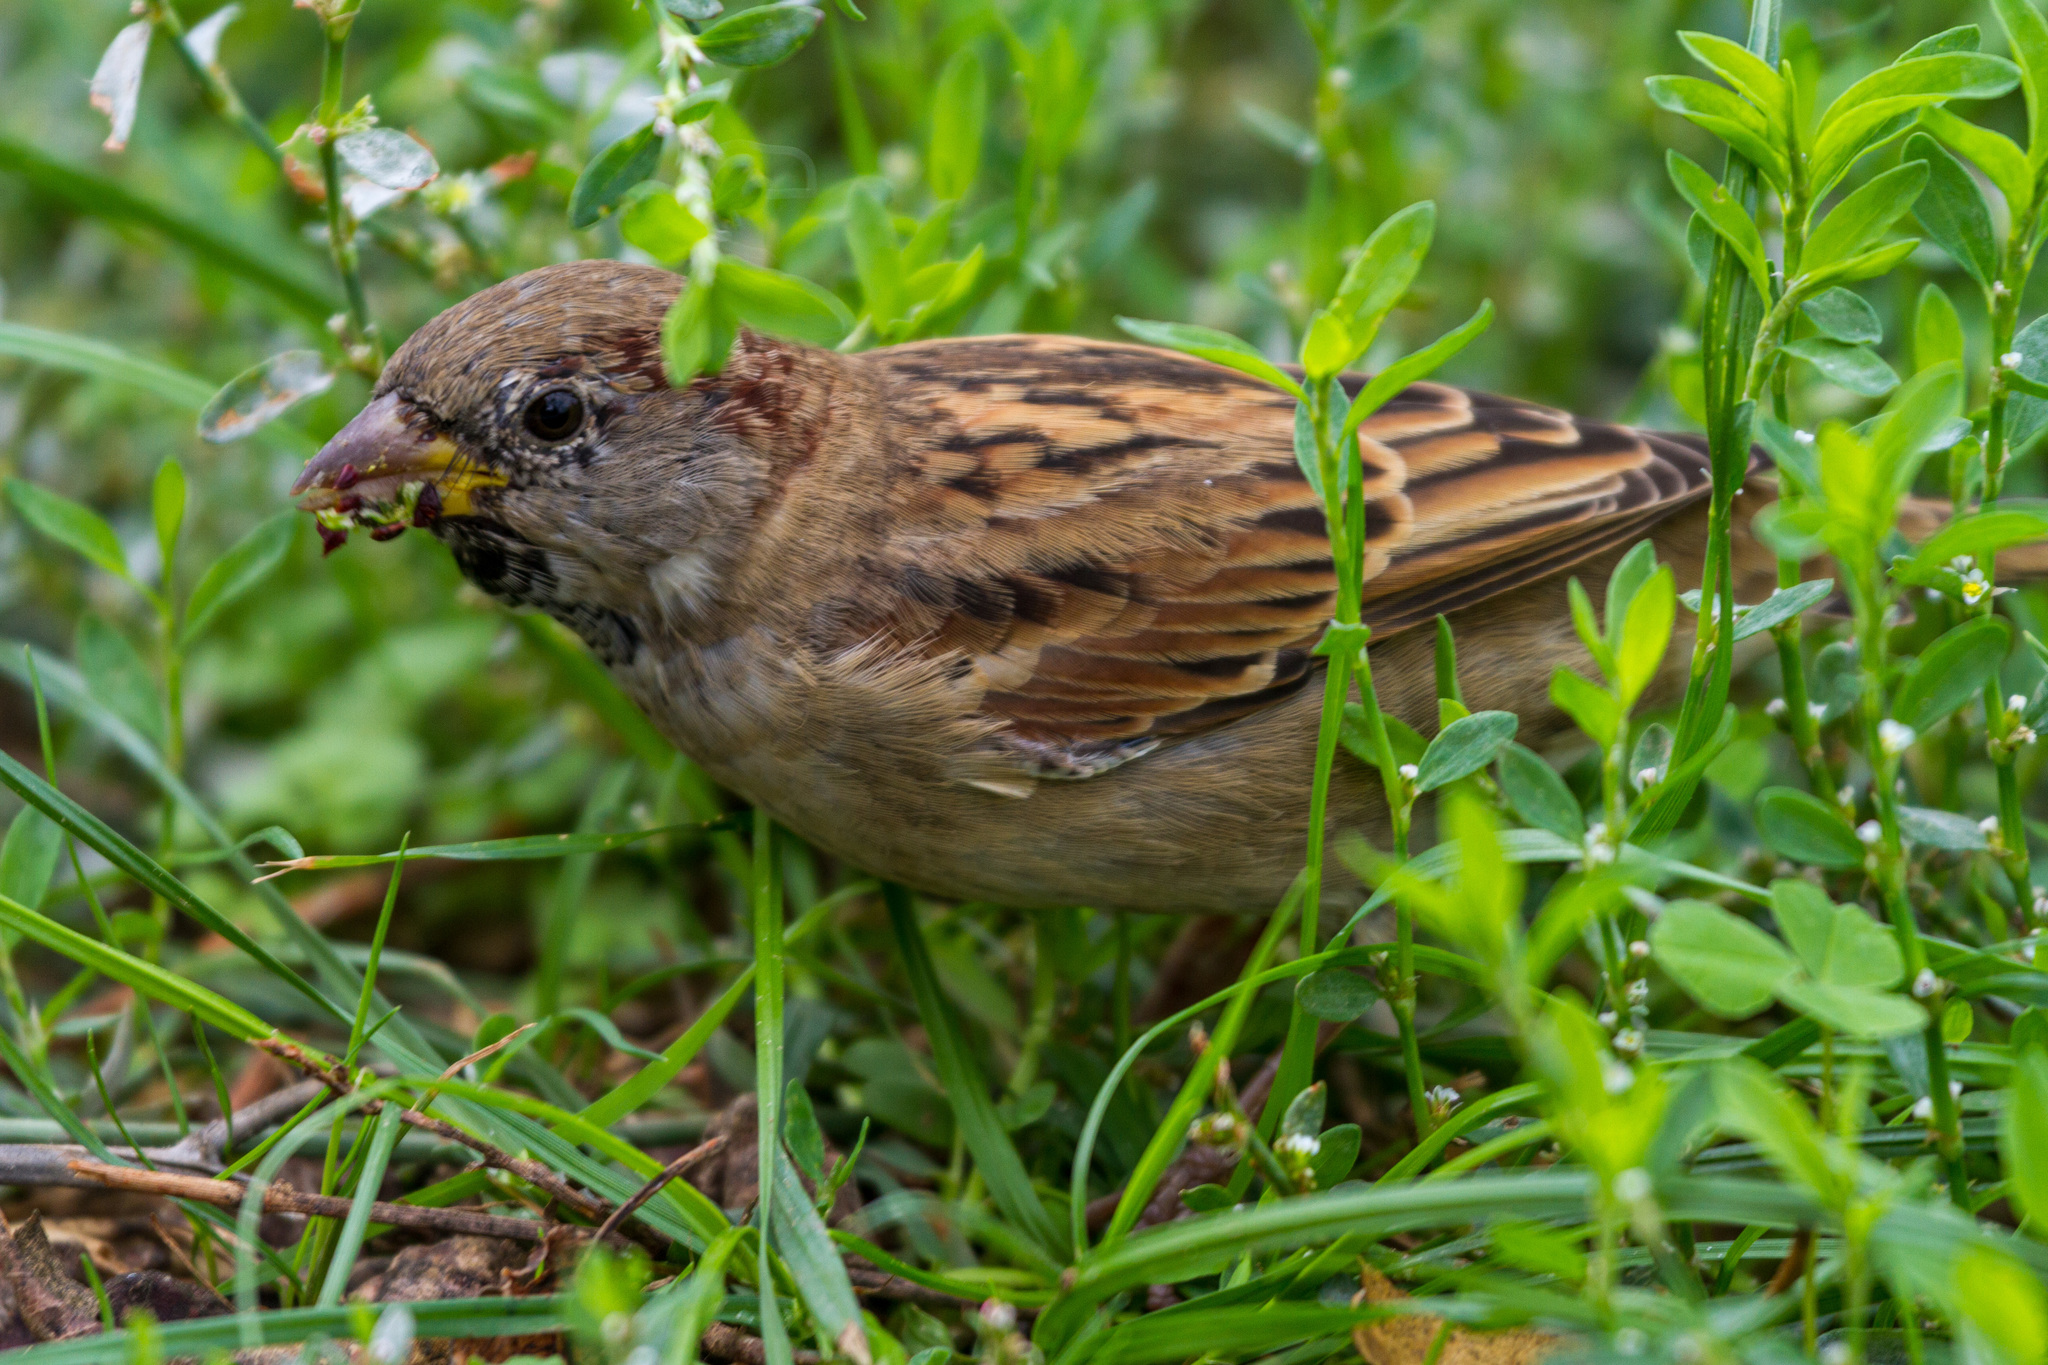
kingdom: Animalia
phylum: Chordata
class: Aves
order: Passeriformes
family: Passeridae
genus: Passer
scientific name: Passer domesticus
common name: House sparrow
